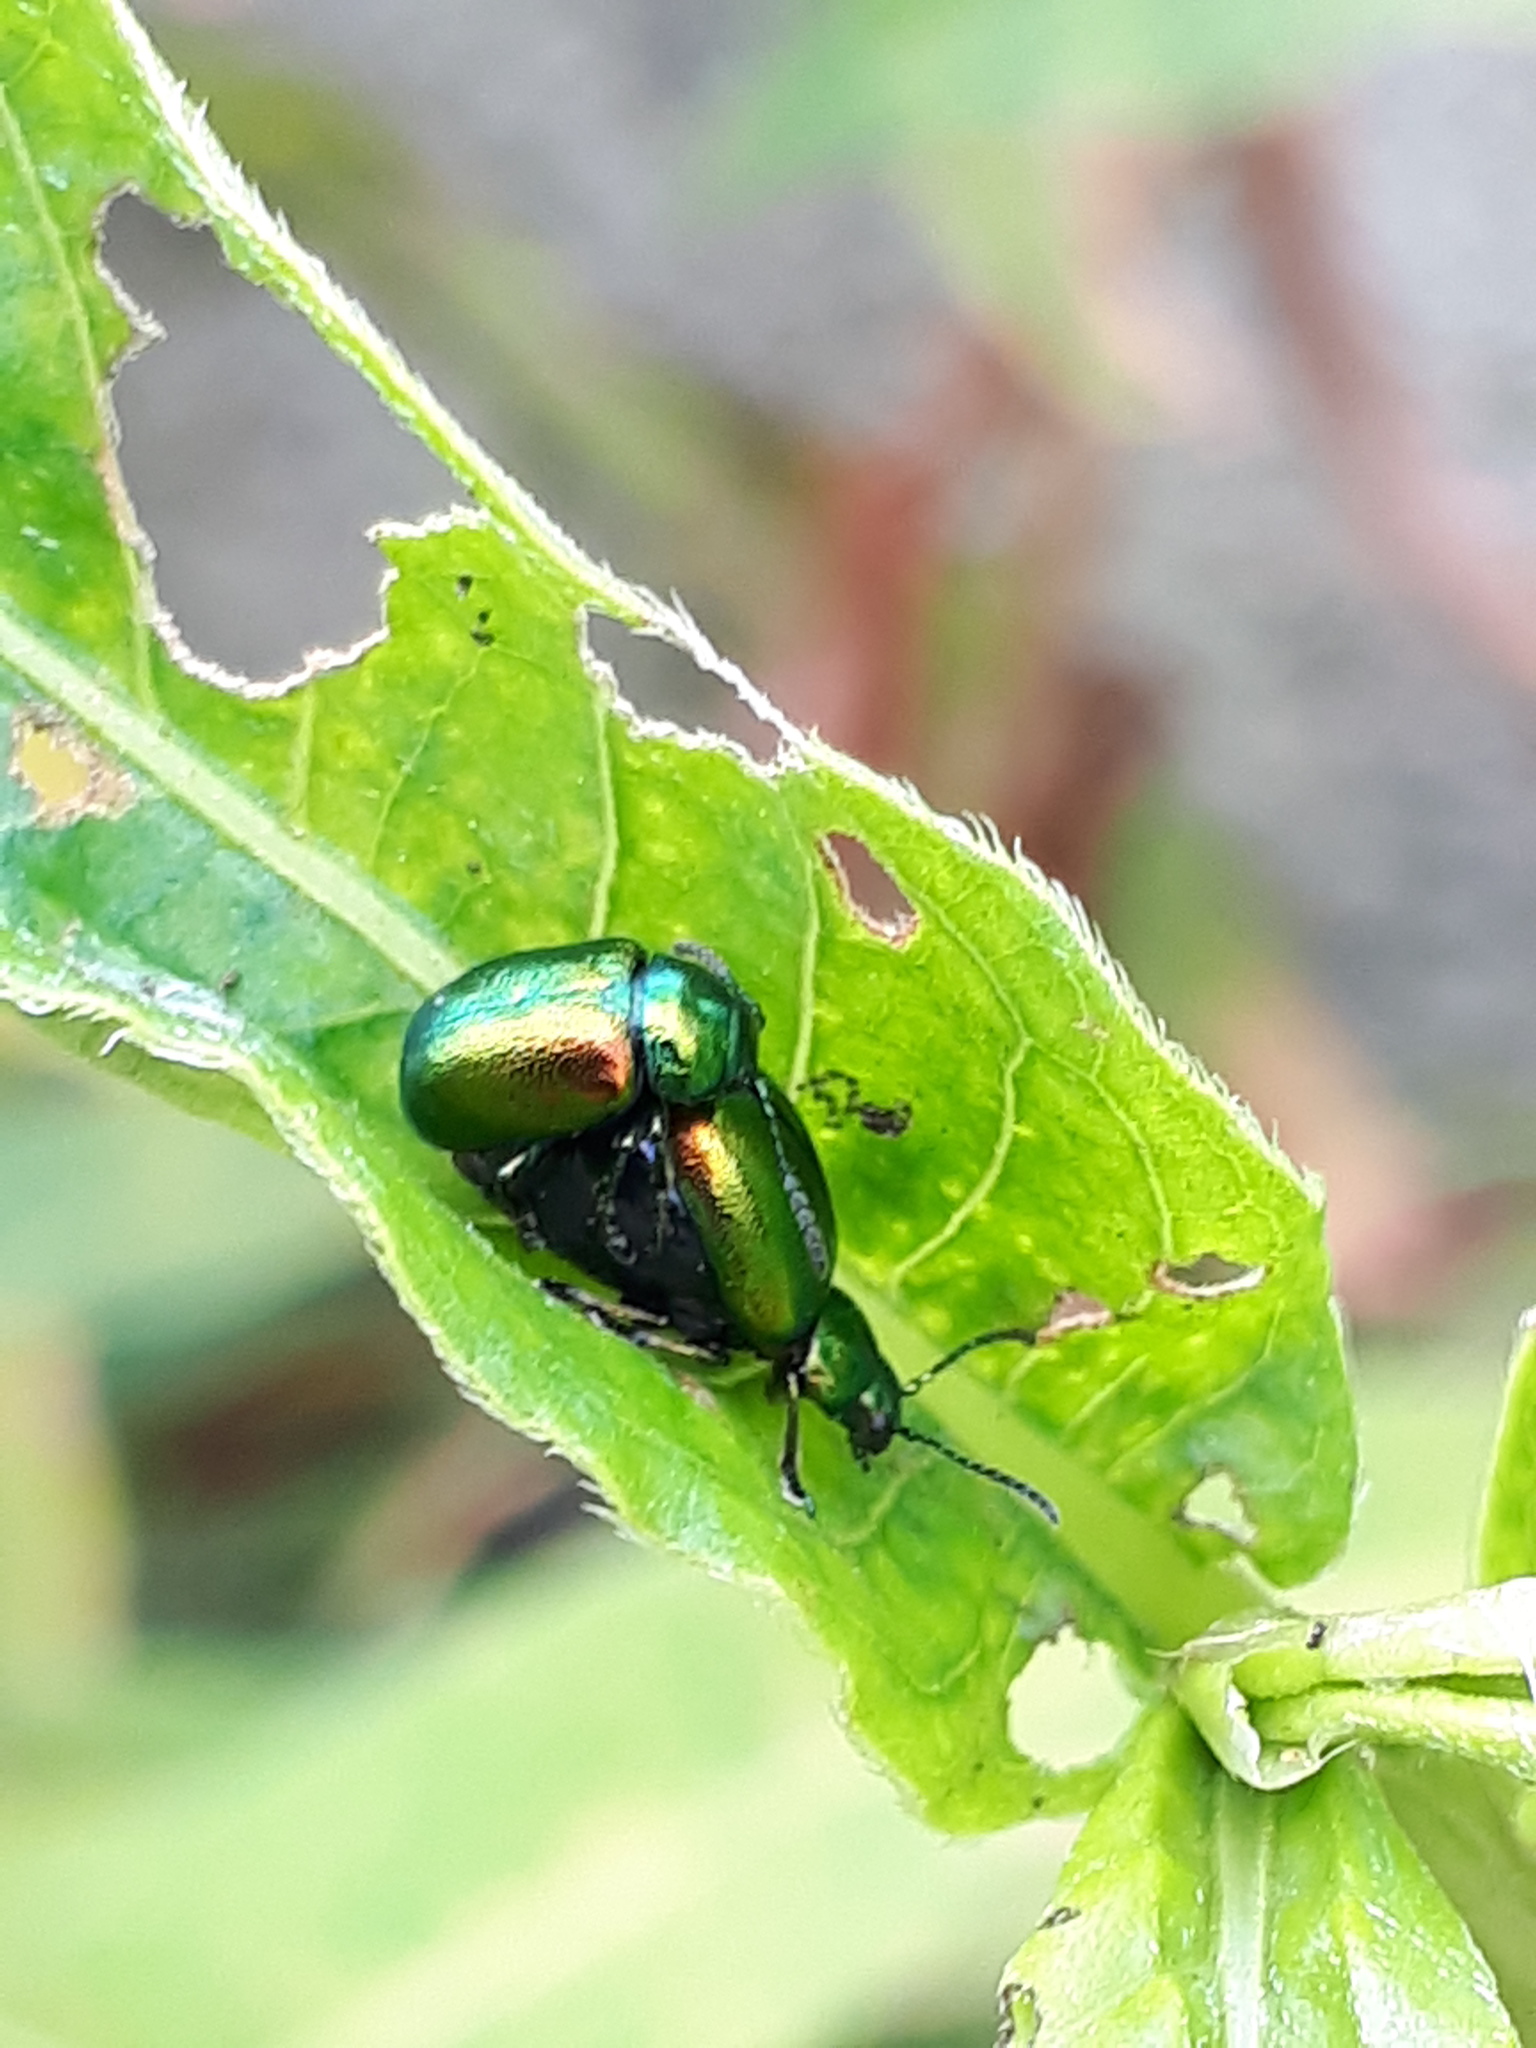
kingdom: Animalia
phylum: Arthropoda
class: Insecta
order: Coleoptera
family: Chrysomelidae
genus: Gastrophysa
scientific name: Gastrophysa viridula
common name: Green dock beetle
